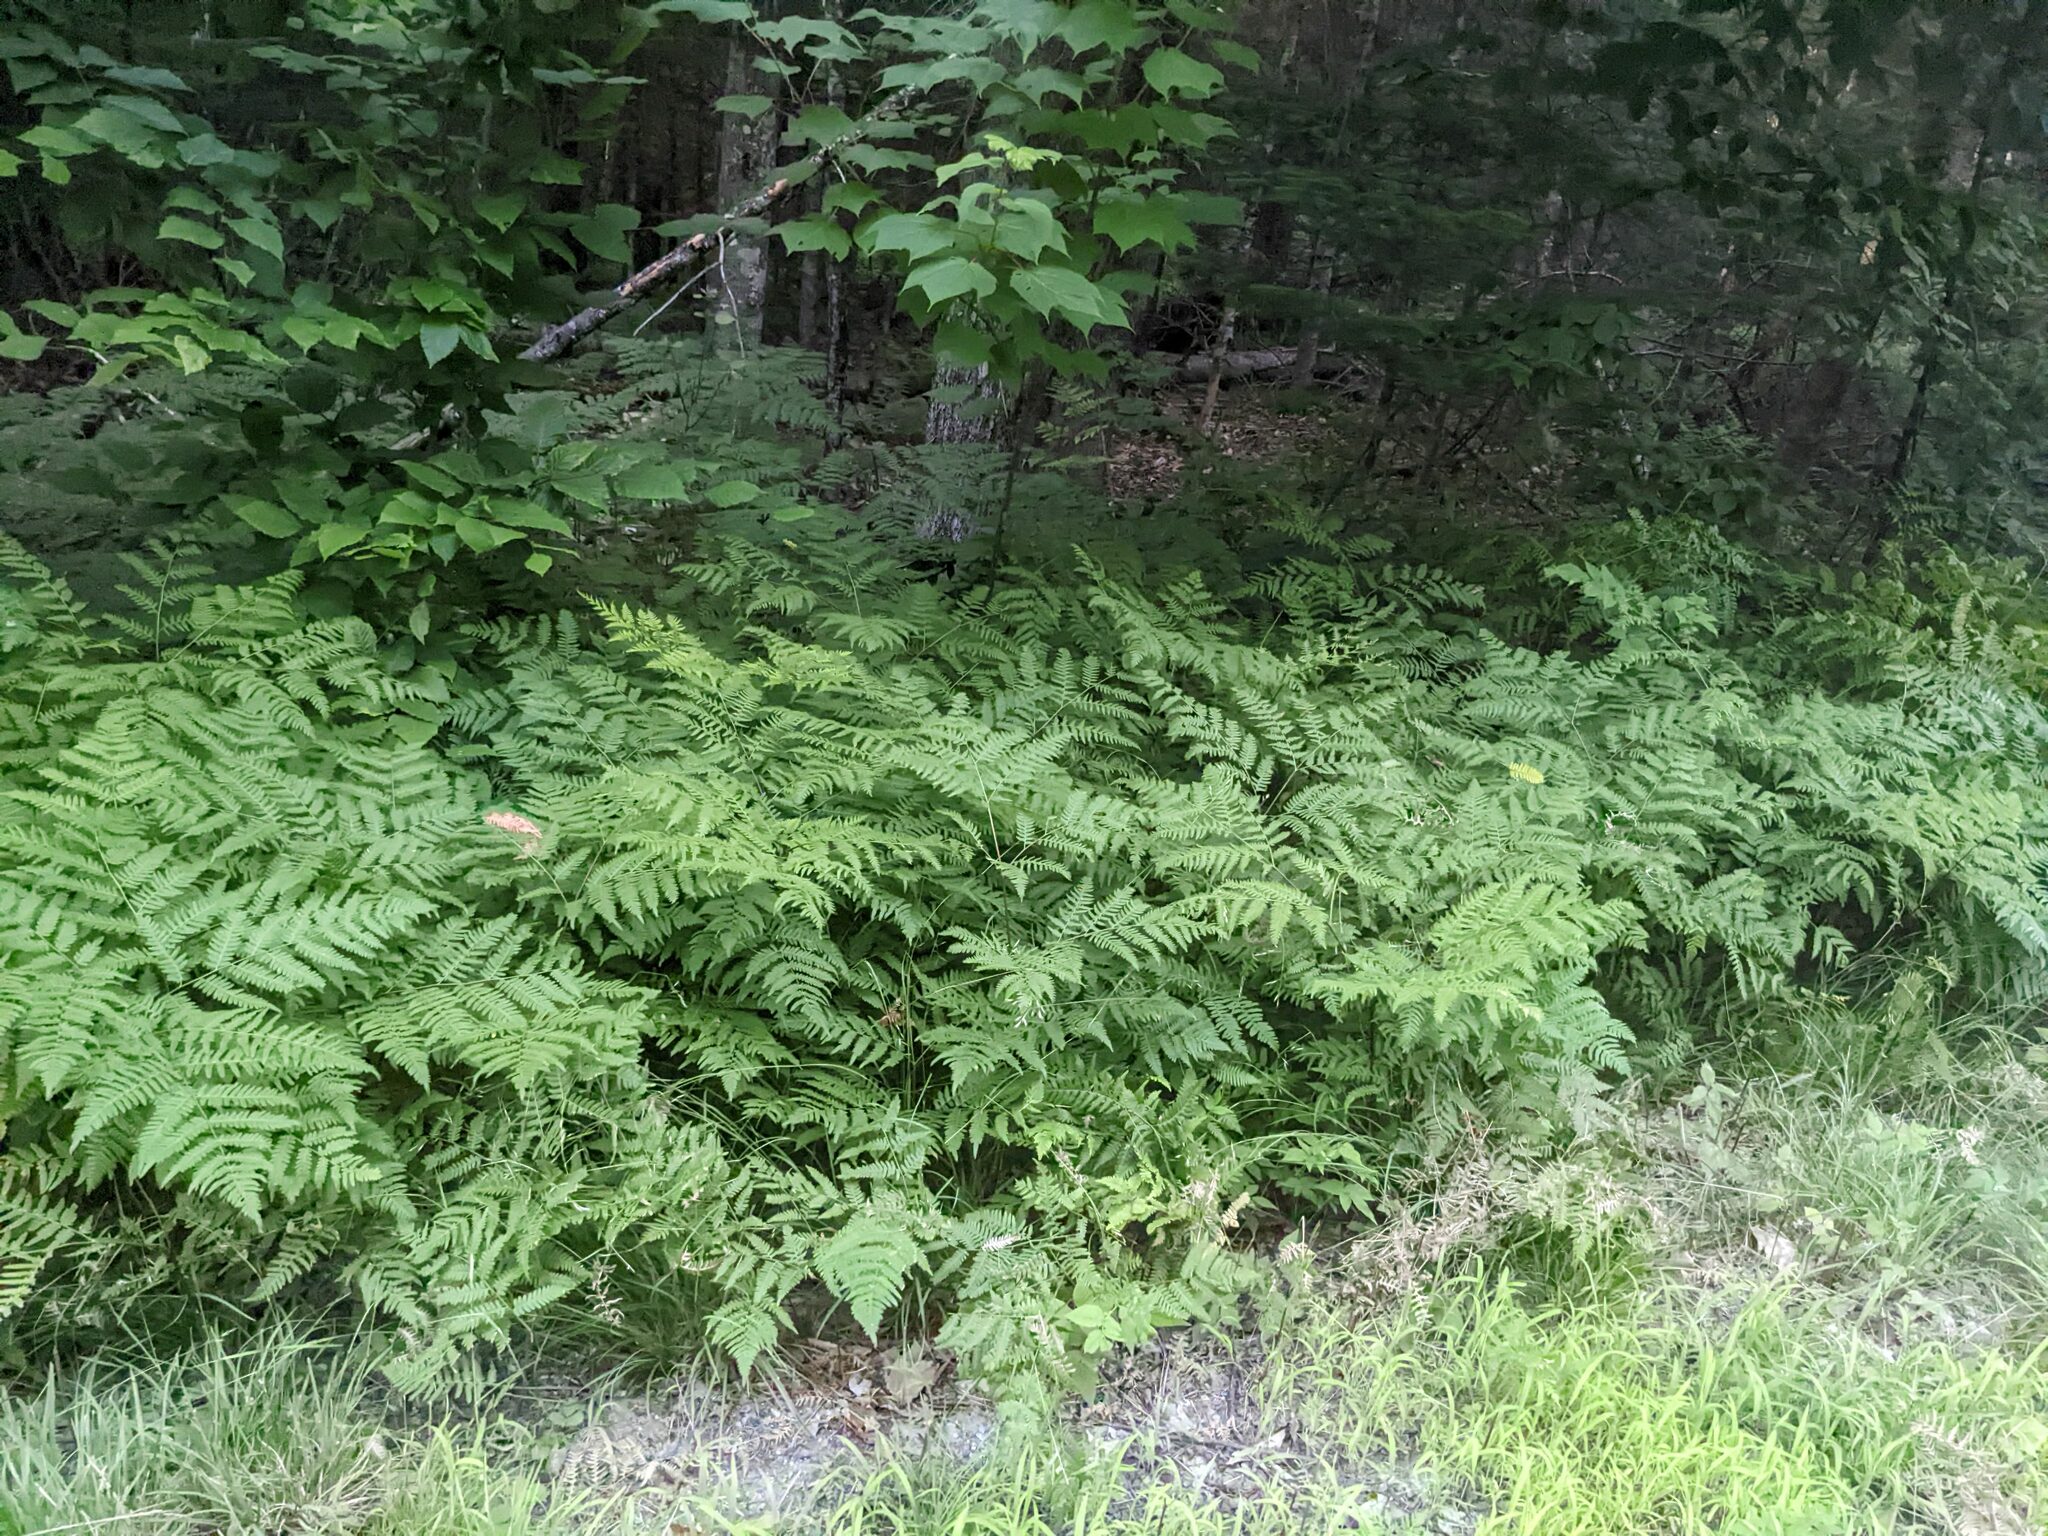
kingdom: Plantae
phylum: Tracheophyta
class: Polypodiopsida
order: Polypodiales
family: Dennstaedtiaceae
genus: Pteridium
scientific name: Pteridium aquilinum
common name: Bracken
